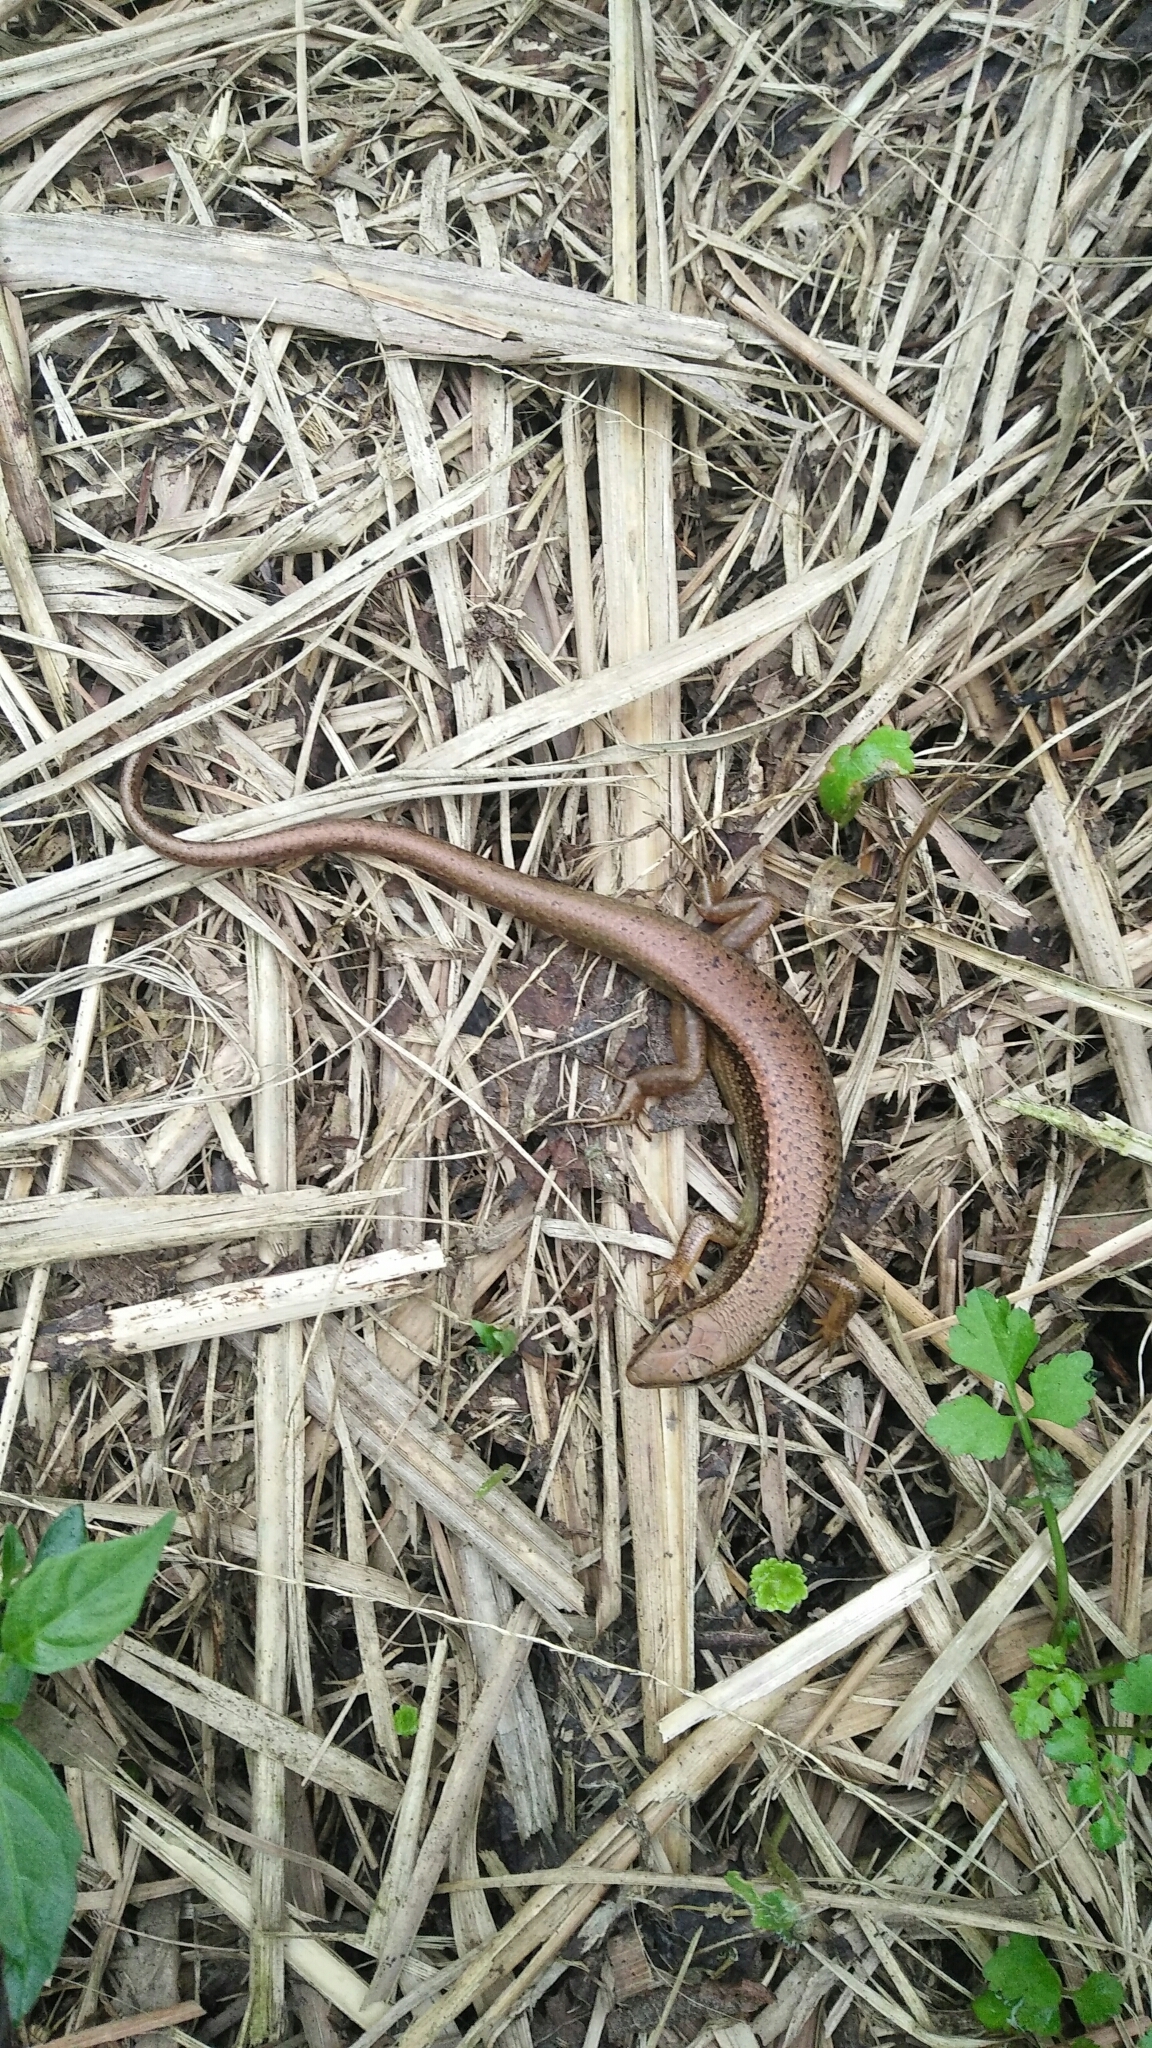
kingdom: Animalia
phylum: Chordata
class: Squamata
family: Scincidae
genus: Sphenomorphus
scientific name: Sphenomorphus indicus
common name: Himalayan forest skink
